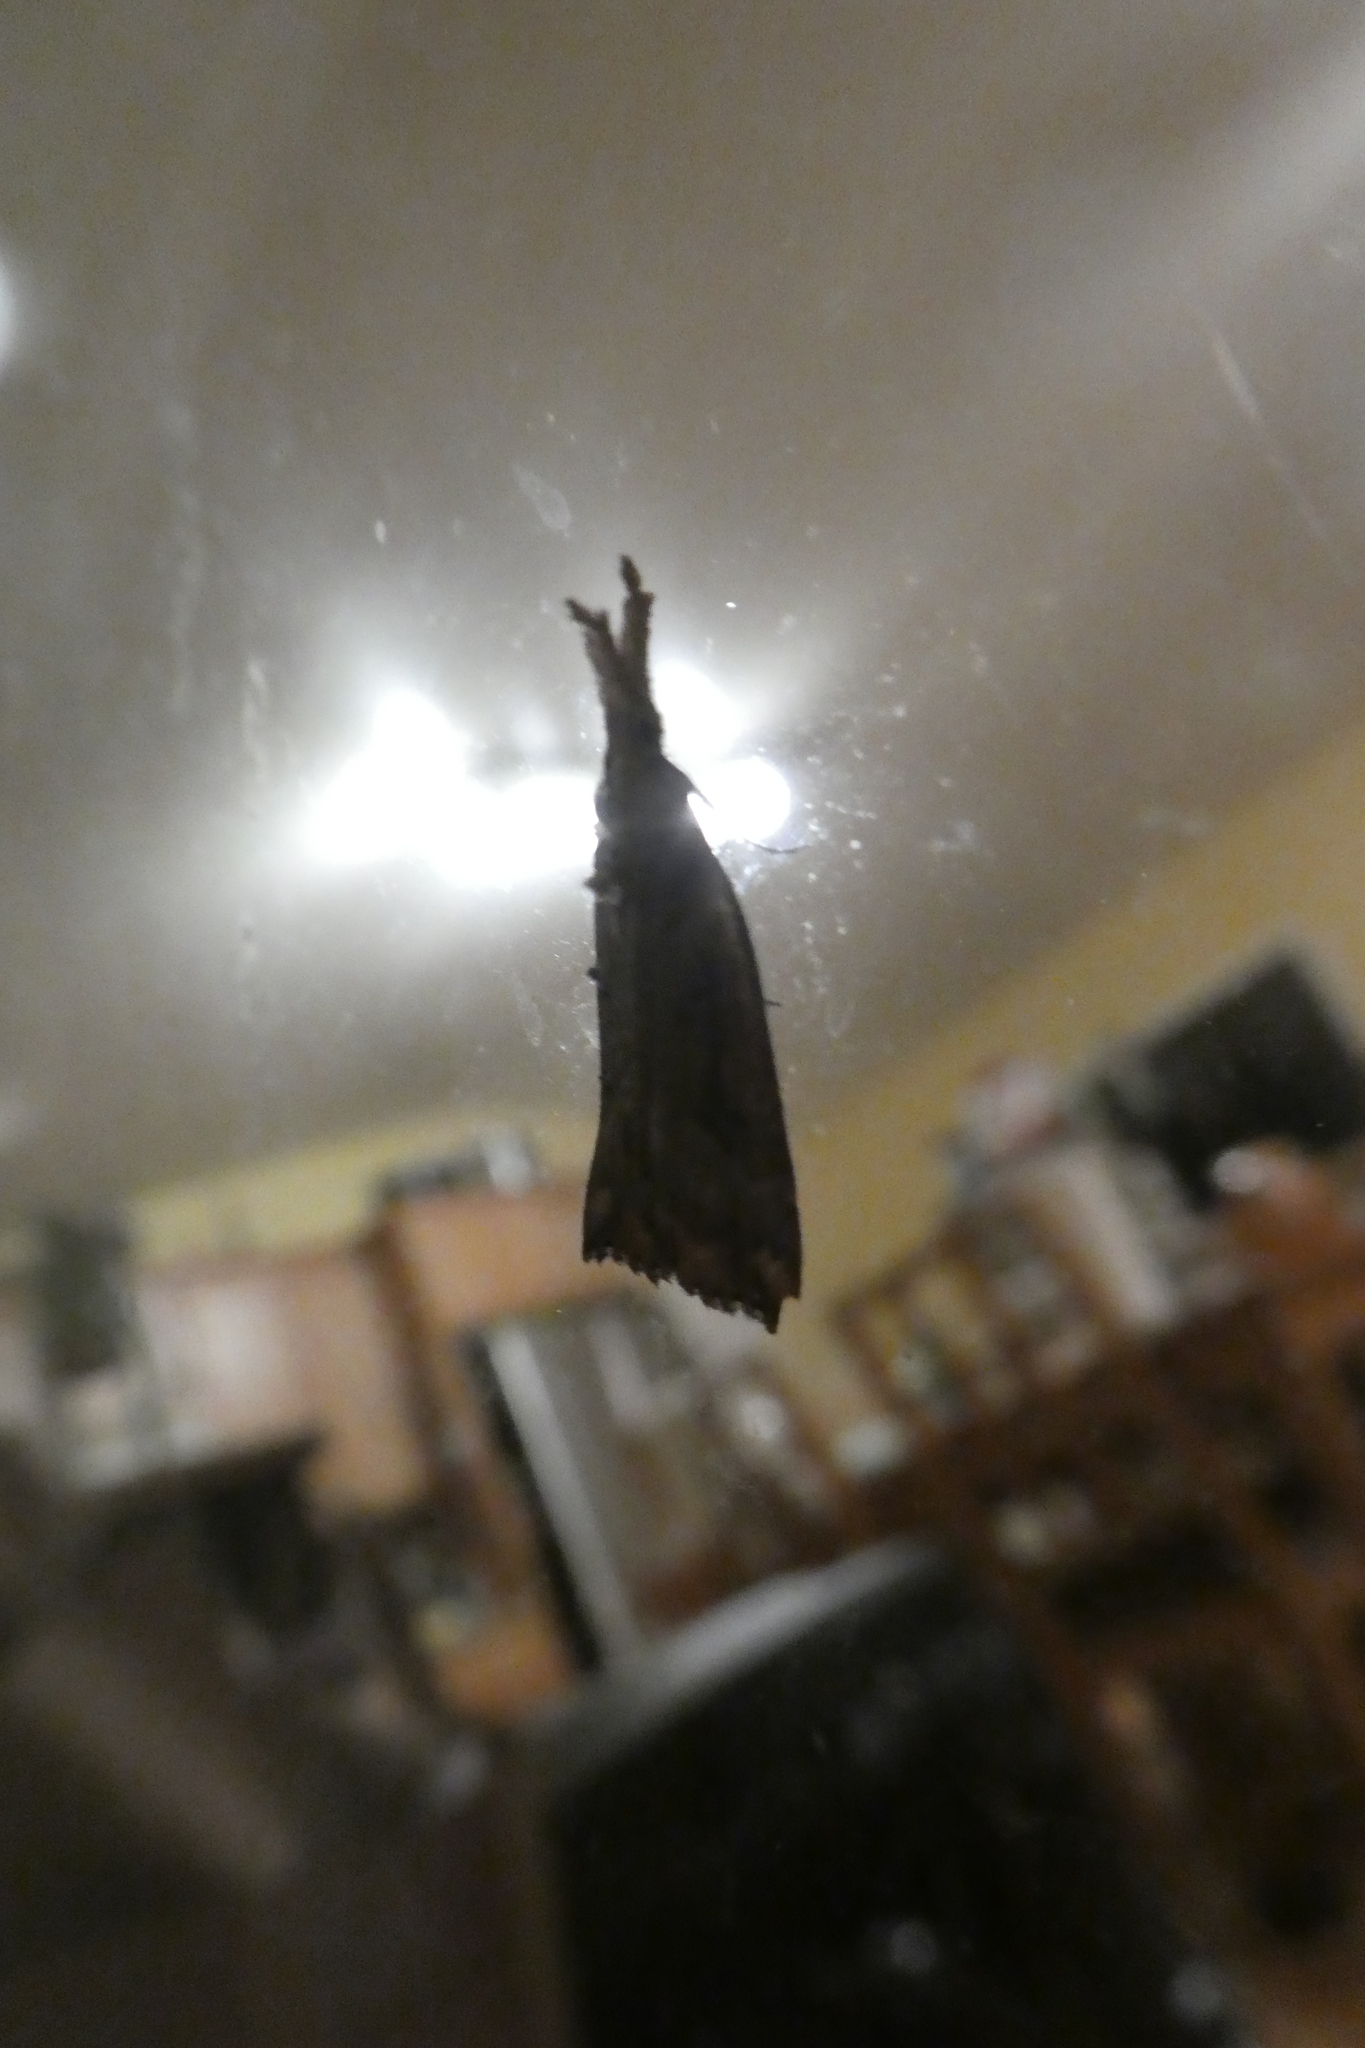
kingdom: Animalia
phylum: Arthropoda
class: Insecta
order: Lepidoptera
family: Erebidae
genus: Hypena
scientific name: Hypena californica
